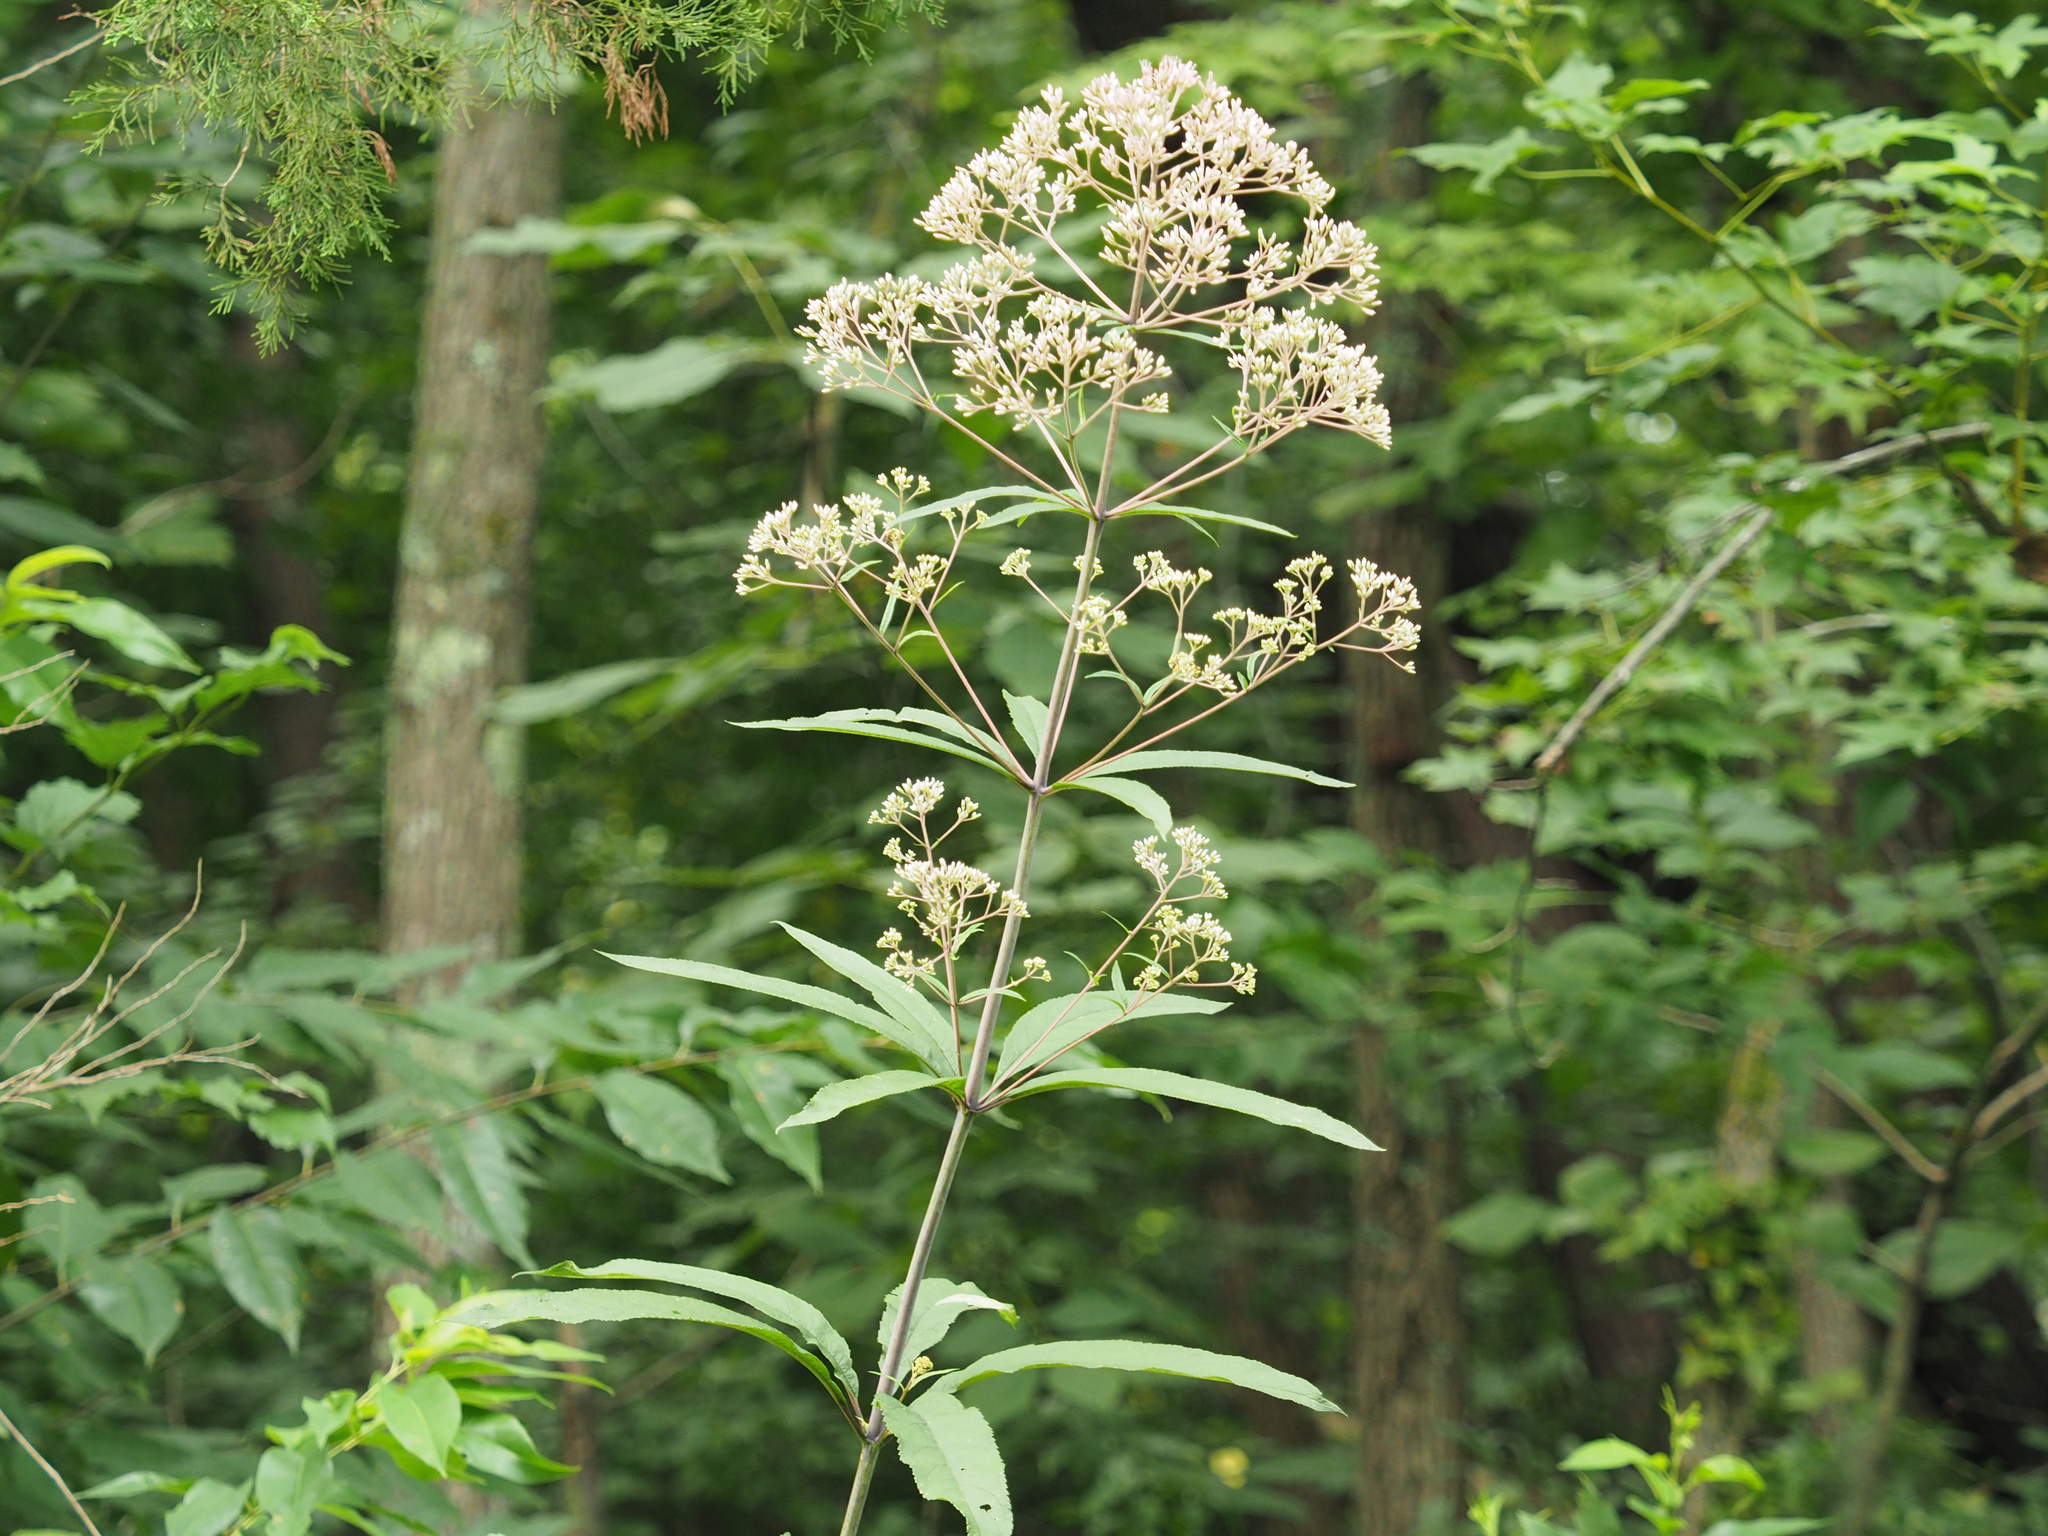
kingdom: Plantae
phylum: Tracheophyta
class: Magnoliopsida
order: Asterales
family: Asteraceae
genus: Eutrochium
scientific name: Eutrochium fistulosum
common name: Trumpetweed
